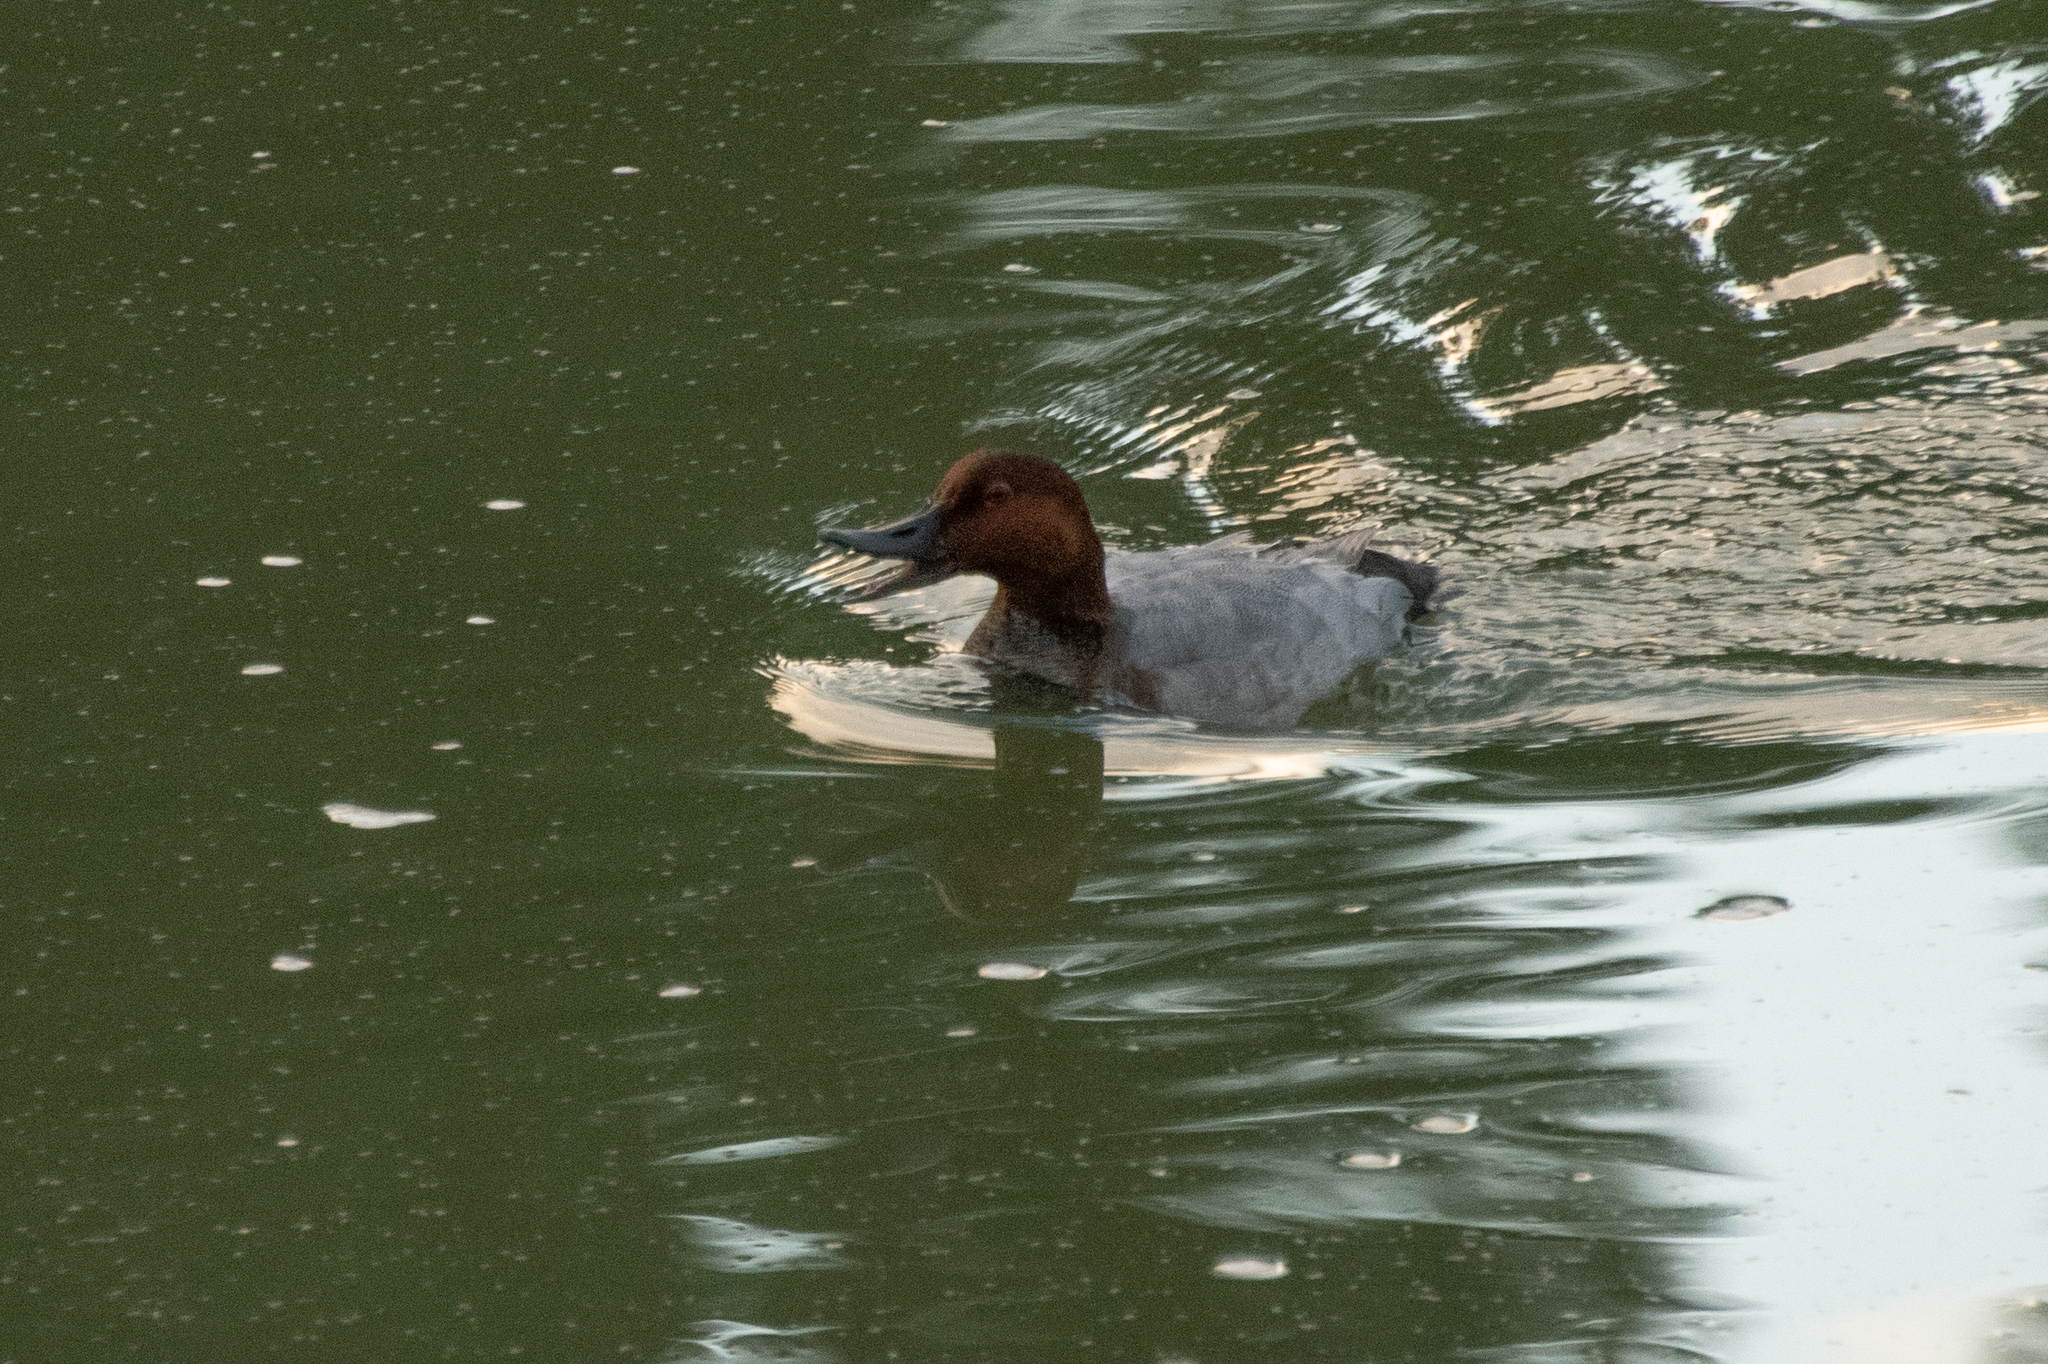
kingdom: Animalia
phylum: Chordata
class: Aves
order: Anseriformes
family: Anatidae
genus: Aythya
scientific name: Aythya ferina
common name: Common pochard
